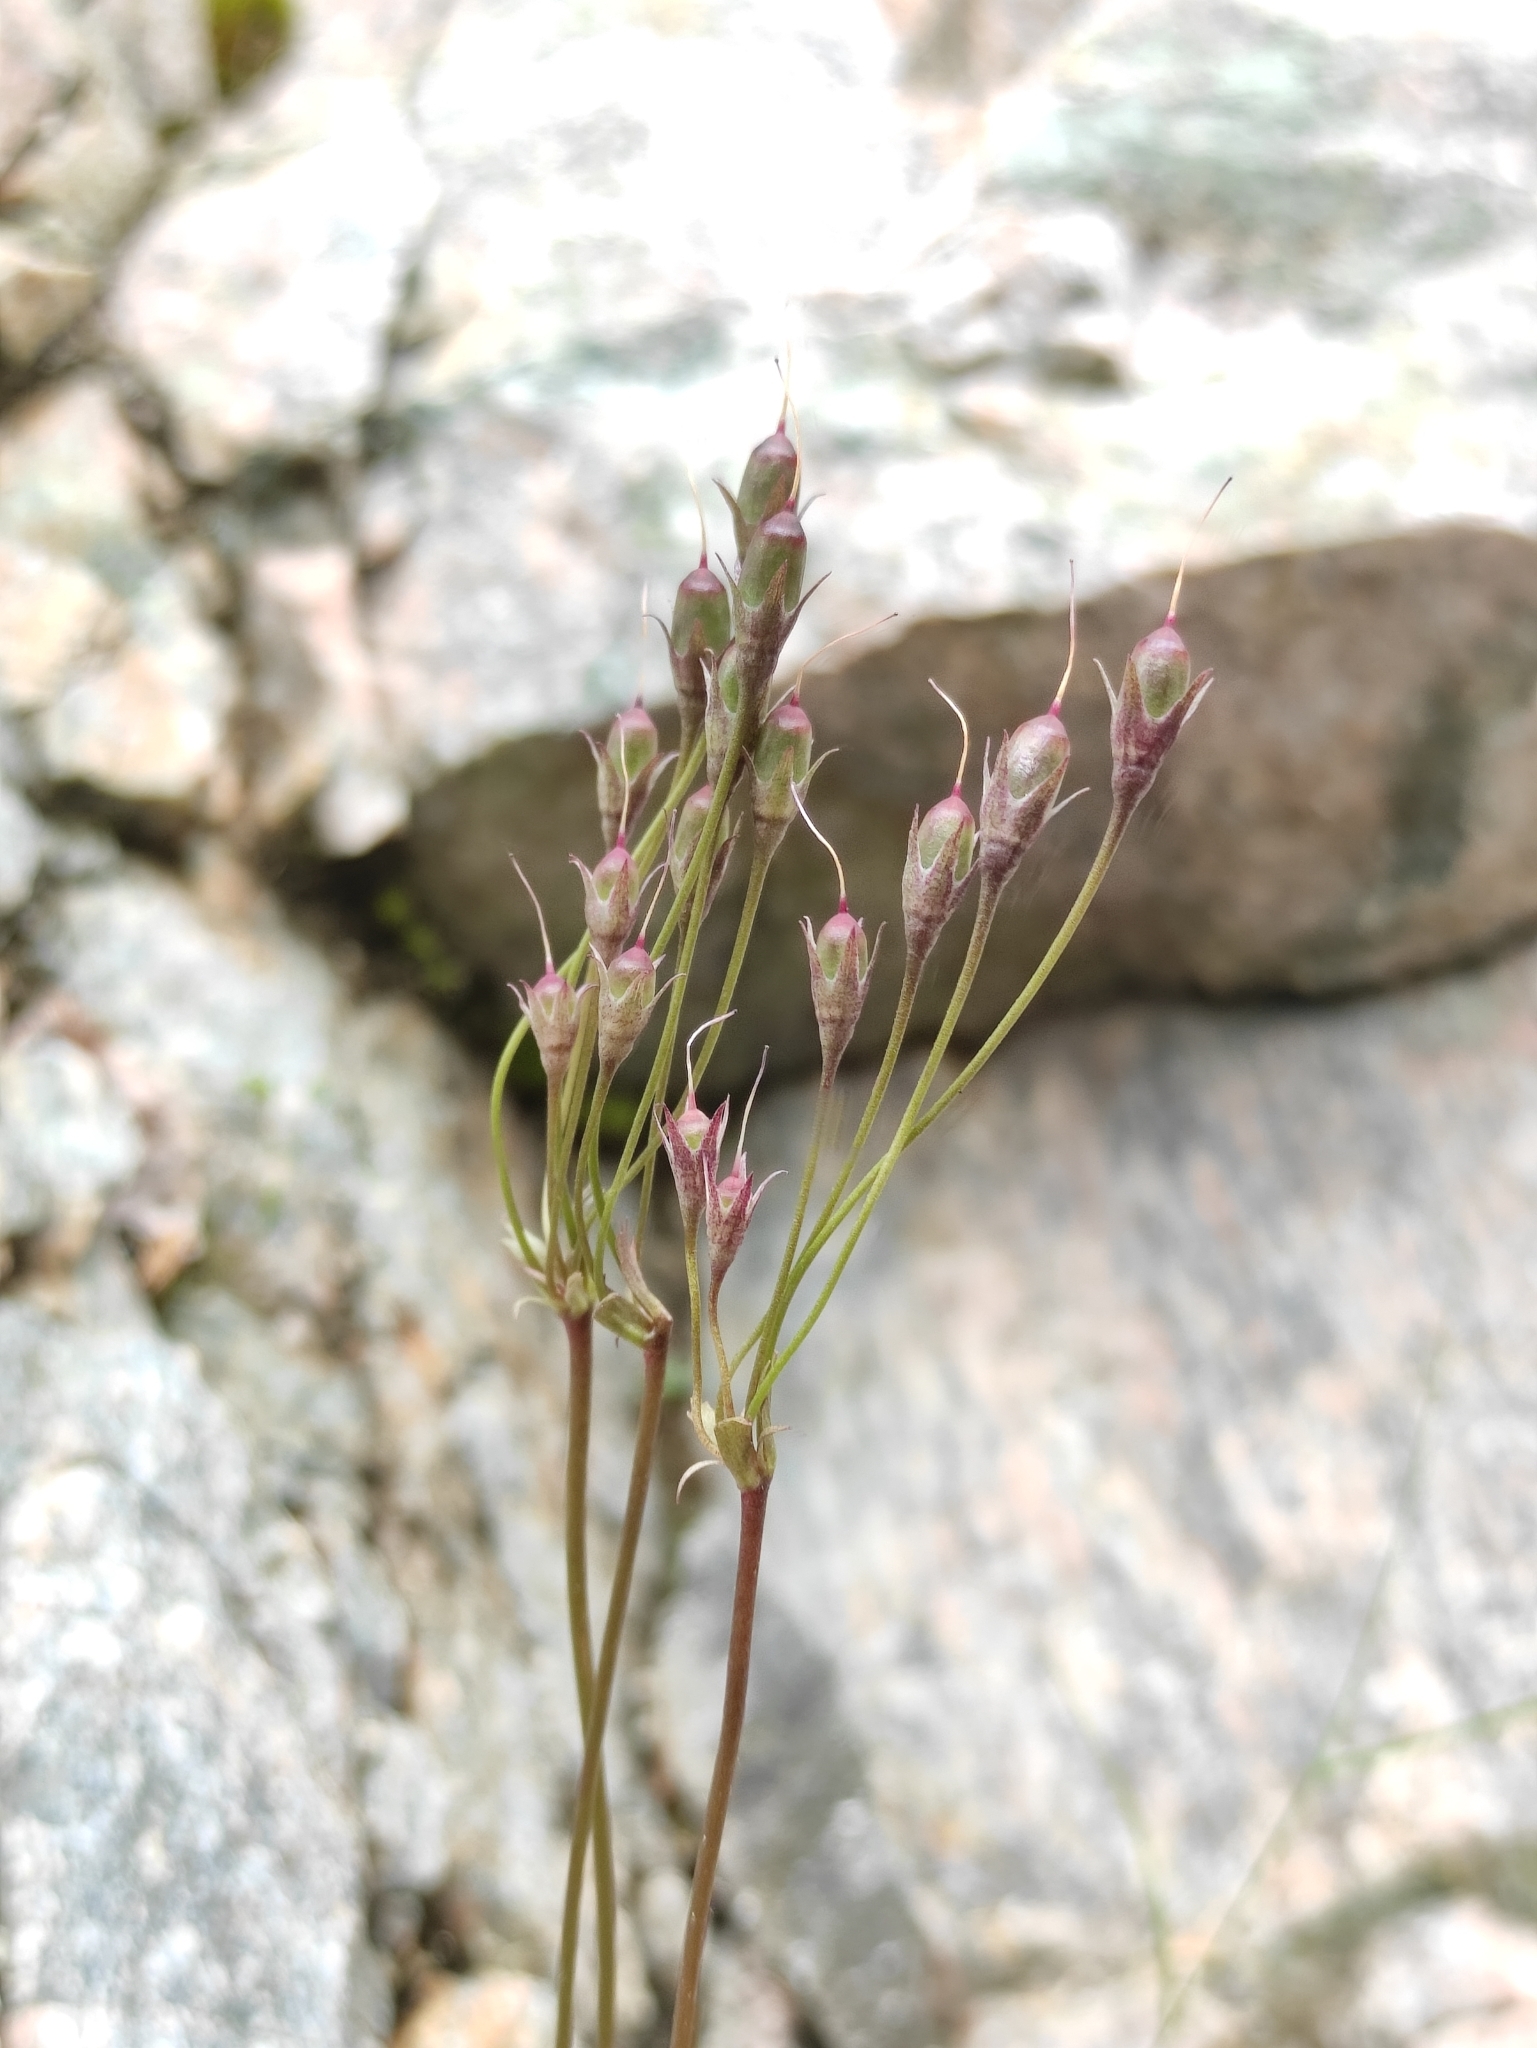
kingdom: Plantae
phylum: Tracheophyta
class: Magnoliopsida
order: Ericales
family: Primulaceae
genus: Primula
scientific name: Primula matthioli
